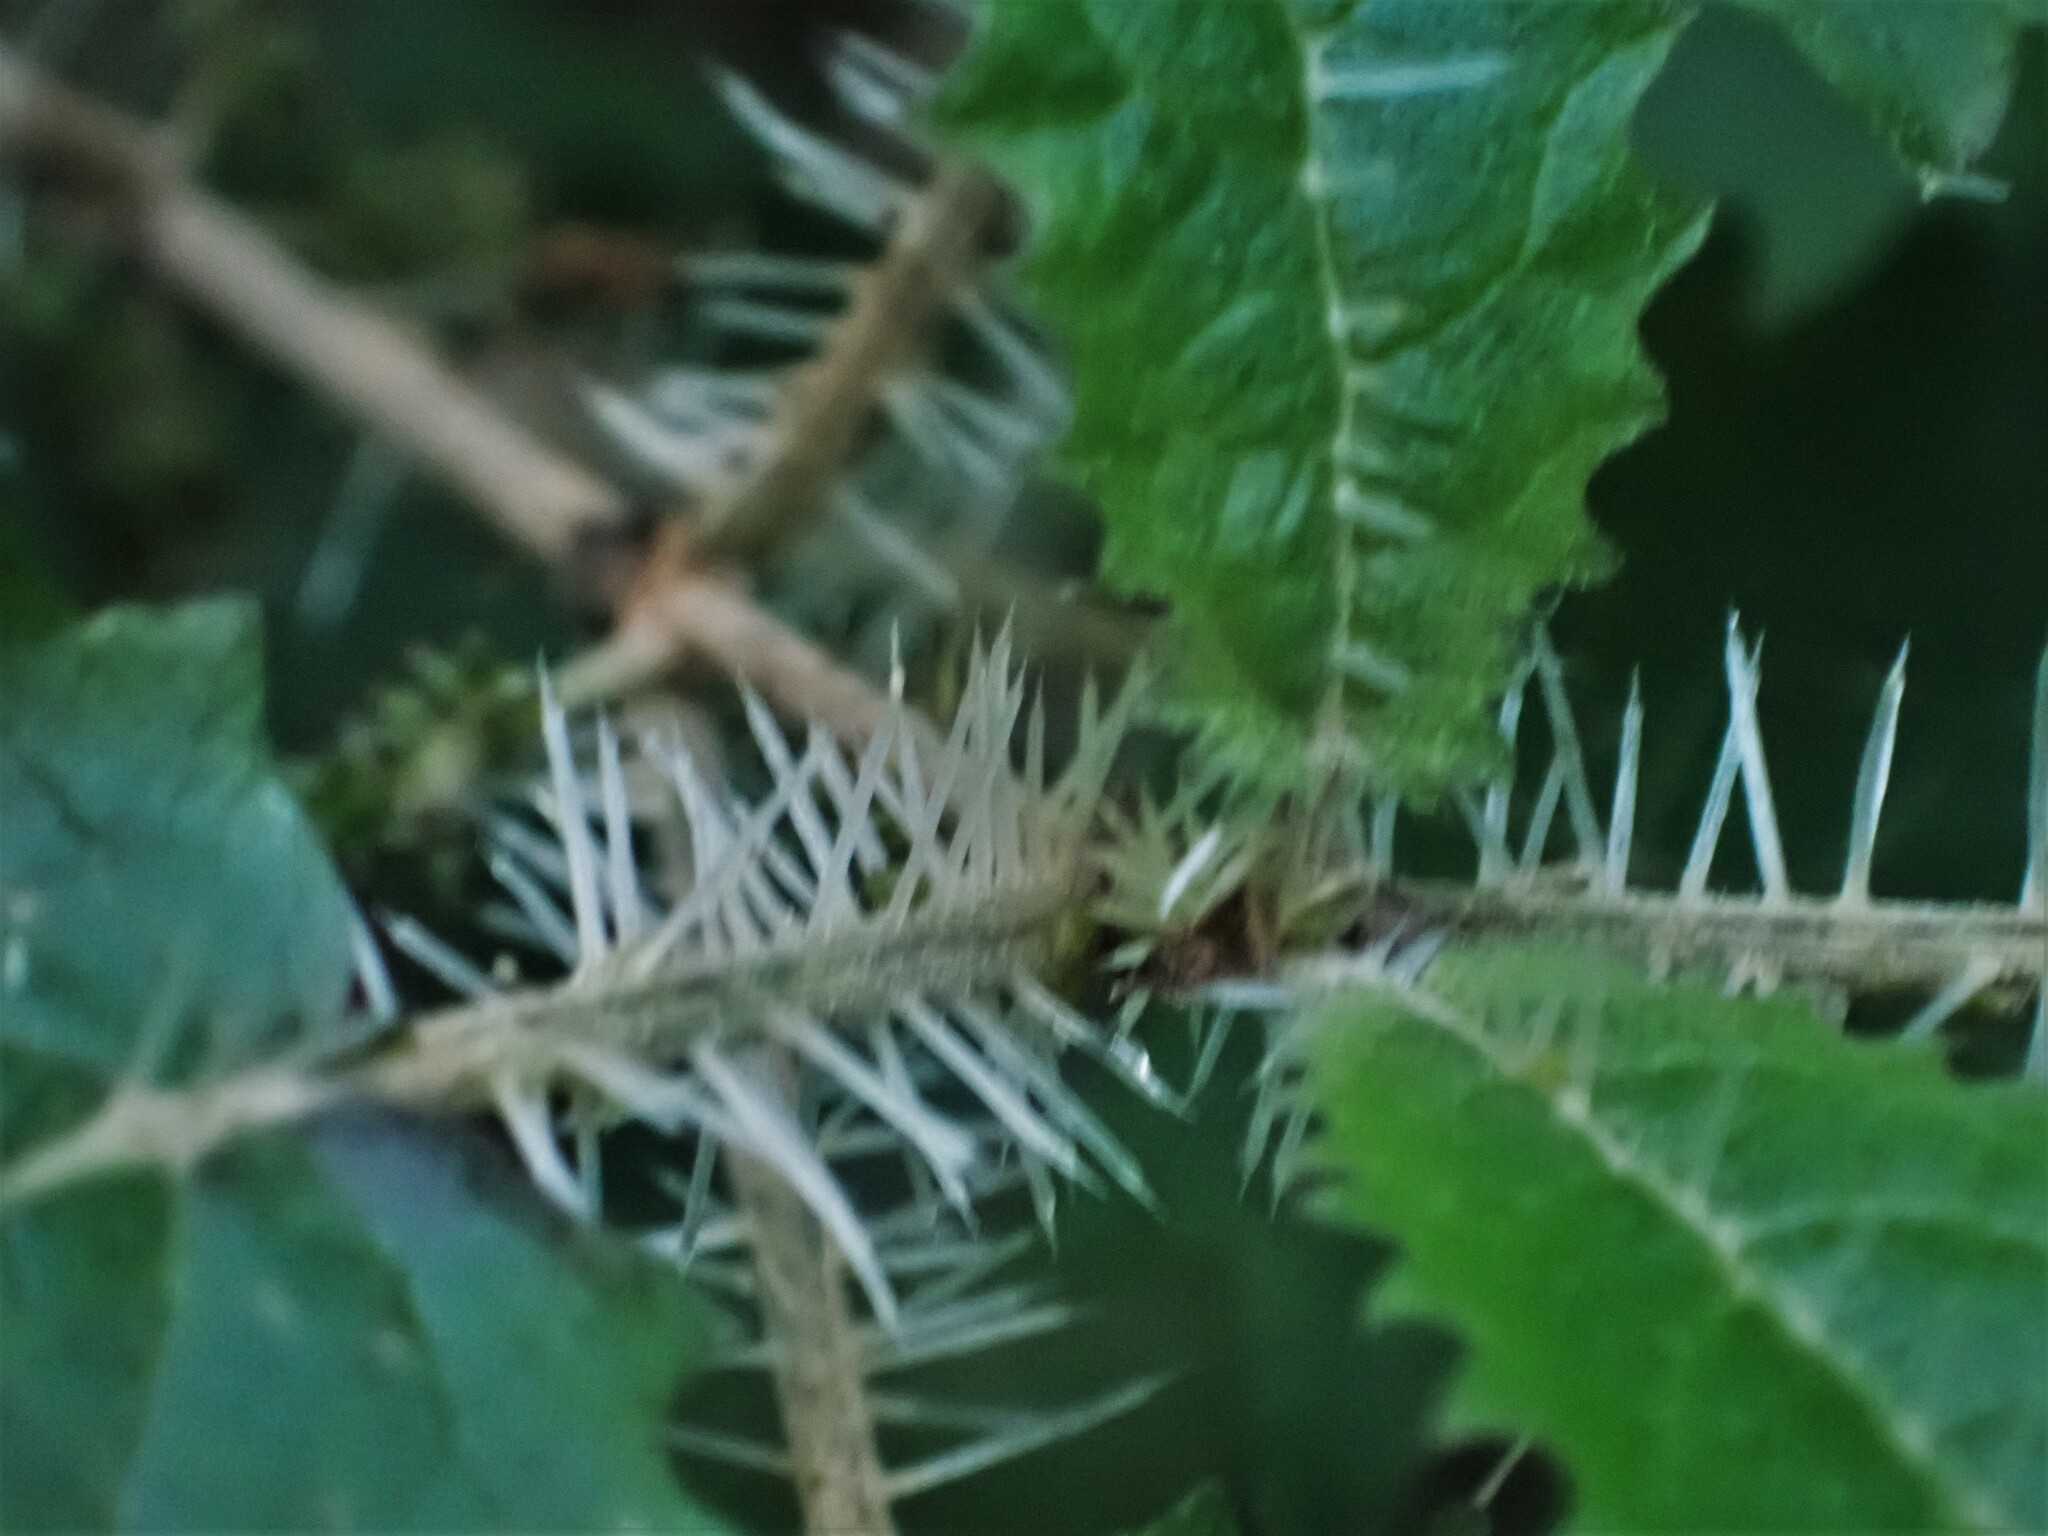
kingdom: Plantae
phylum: Tracheophyta
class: Magnoliopsida
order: Rosales
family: Urticaceae
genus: Urtica
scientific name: Urtica ferox
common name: Tree nettle
